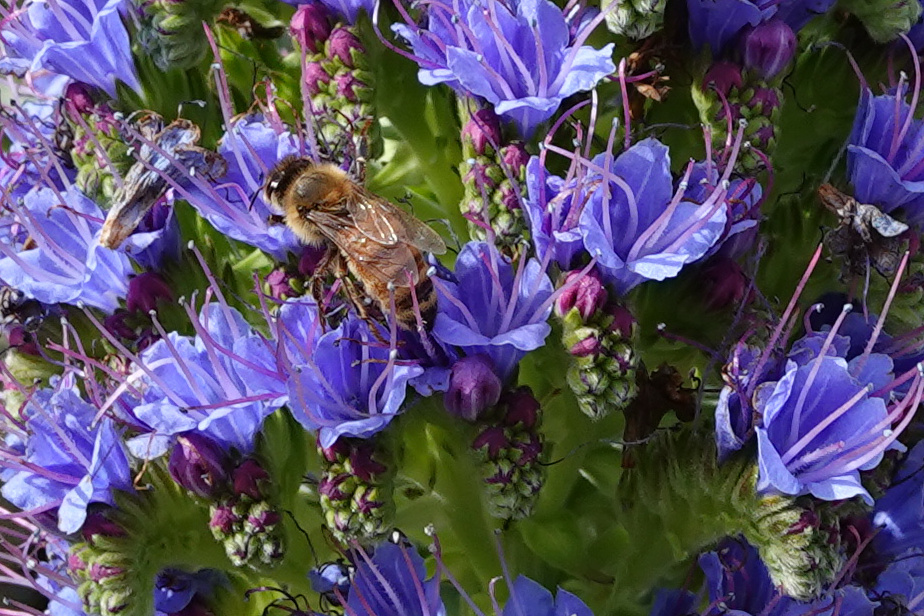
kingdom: Animalia
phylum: Arthropoda
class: Insecta
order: Hymenoptera
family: Apidae
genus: Apis
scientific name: Apis mellifera
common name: Honey bee
